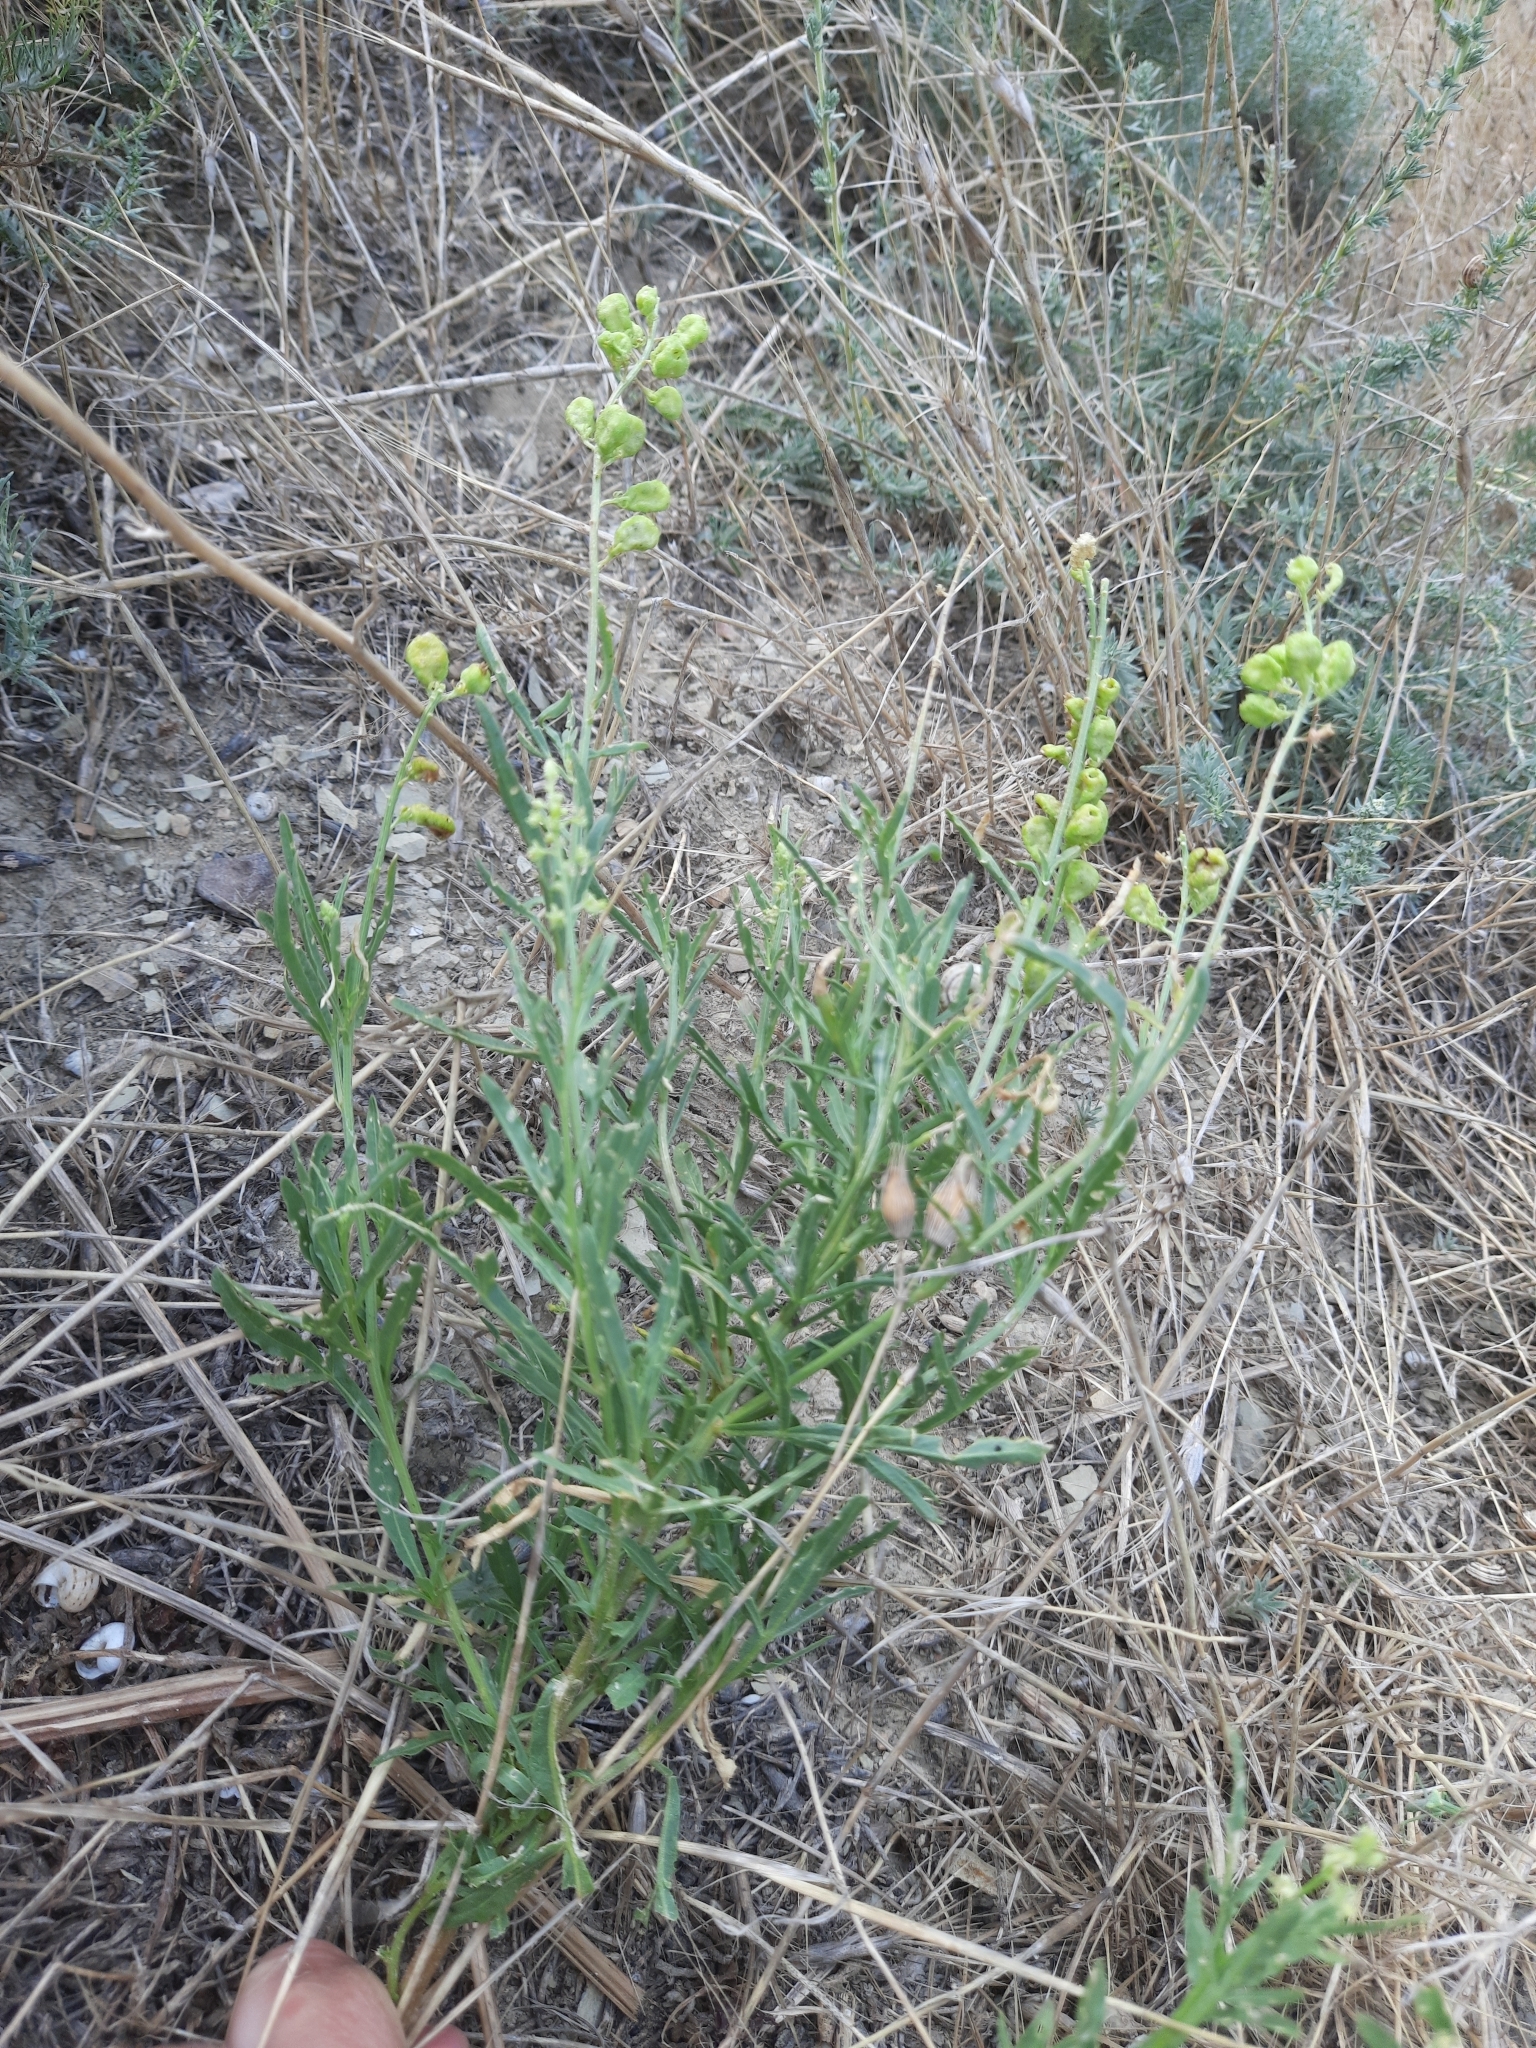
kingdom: Plantae
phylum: Tracheophyta
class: Magnoliopsida
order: Brassicales
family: Resedaceae
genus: Reseda
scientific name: Reseda lutea
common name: Wild mignonette
